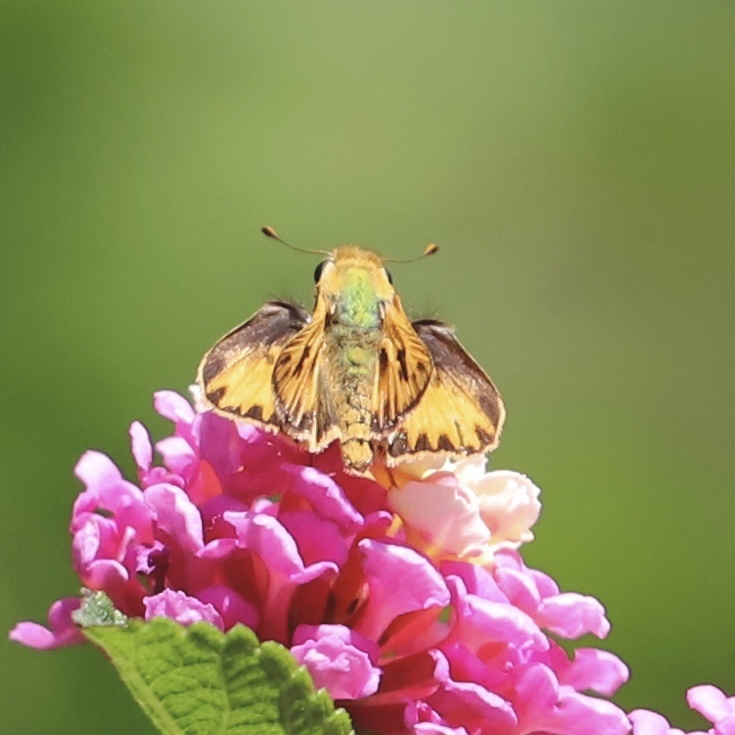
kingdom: Animalia
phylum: Arthropoda
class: Insecta
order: Lepidoptera
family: Hesperiidae
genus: Hylephila
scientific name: Hylephila phyleus
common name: Fiery skipper
